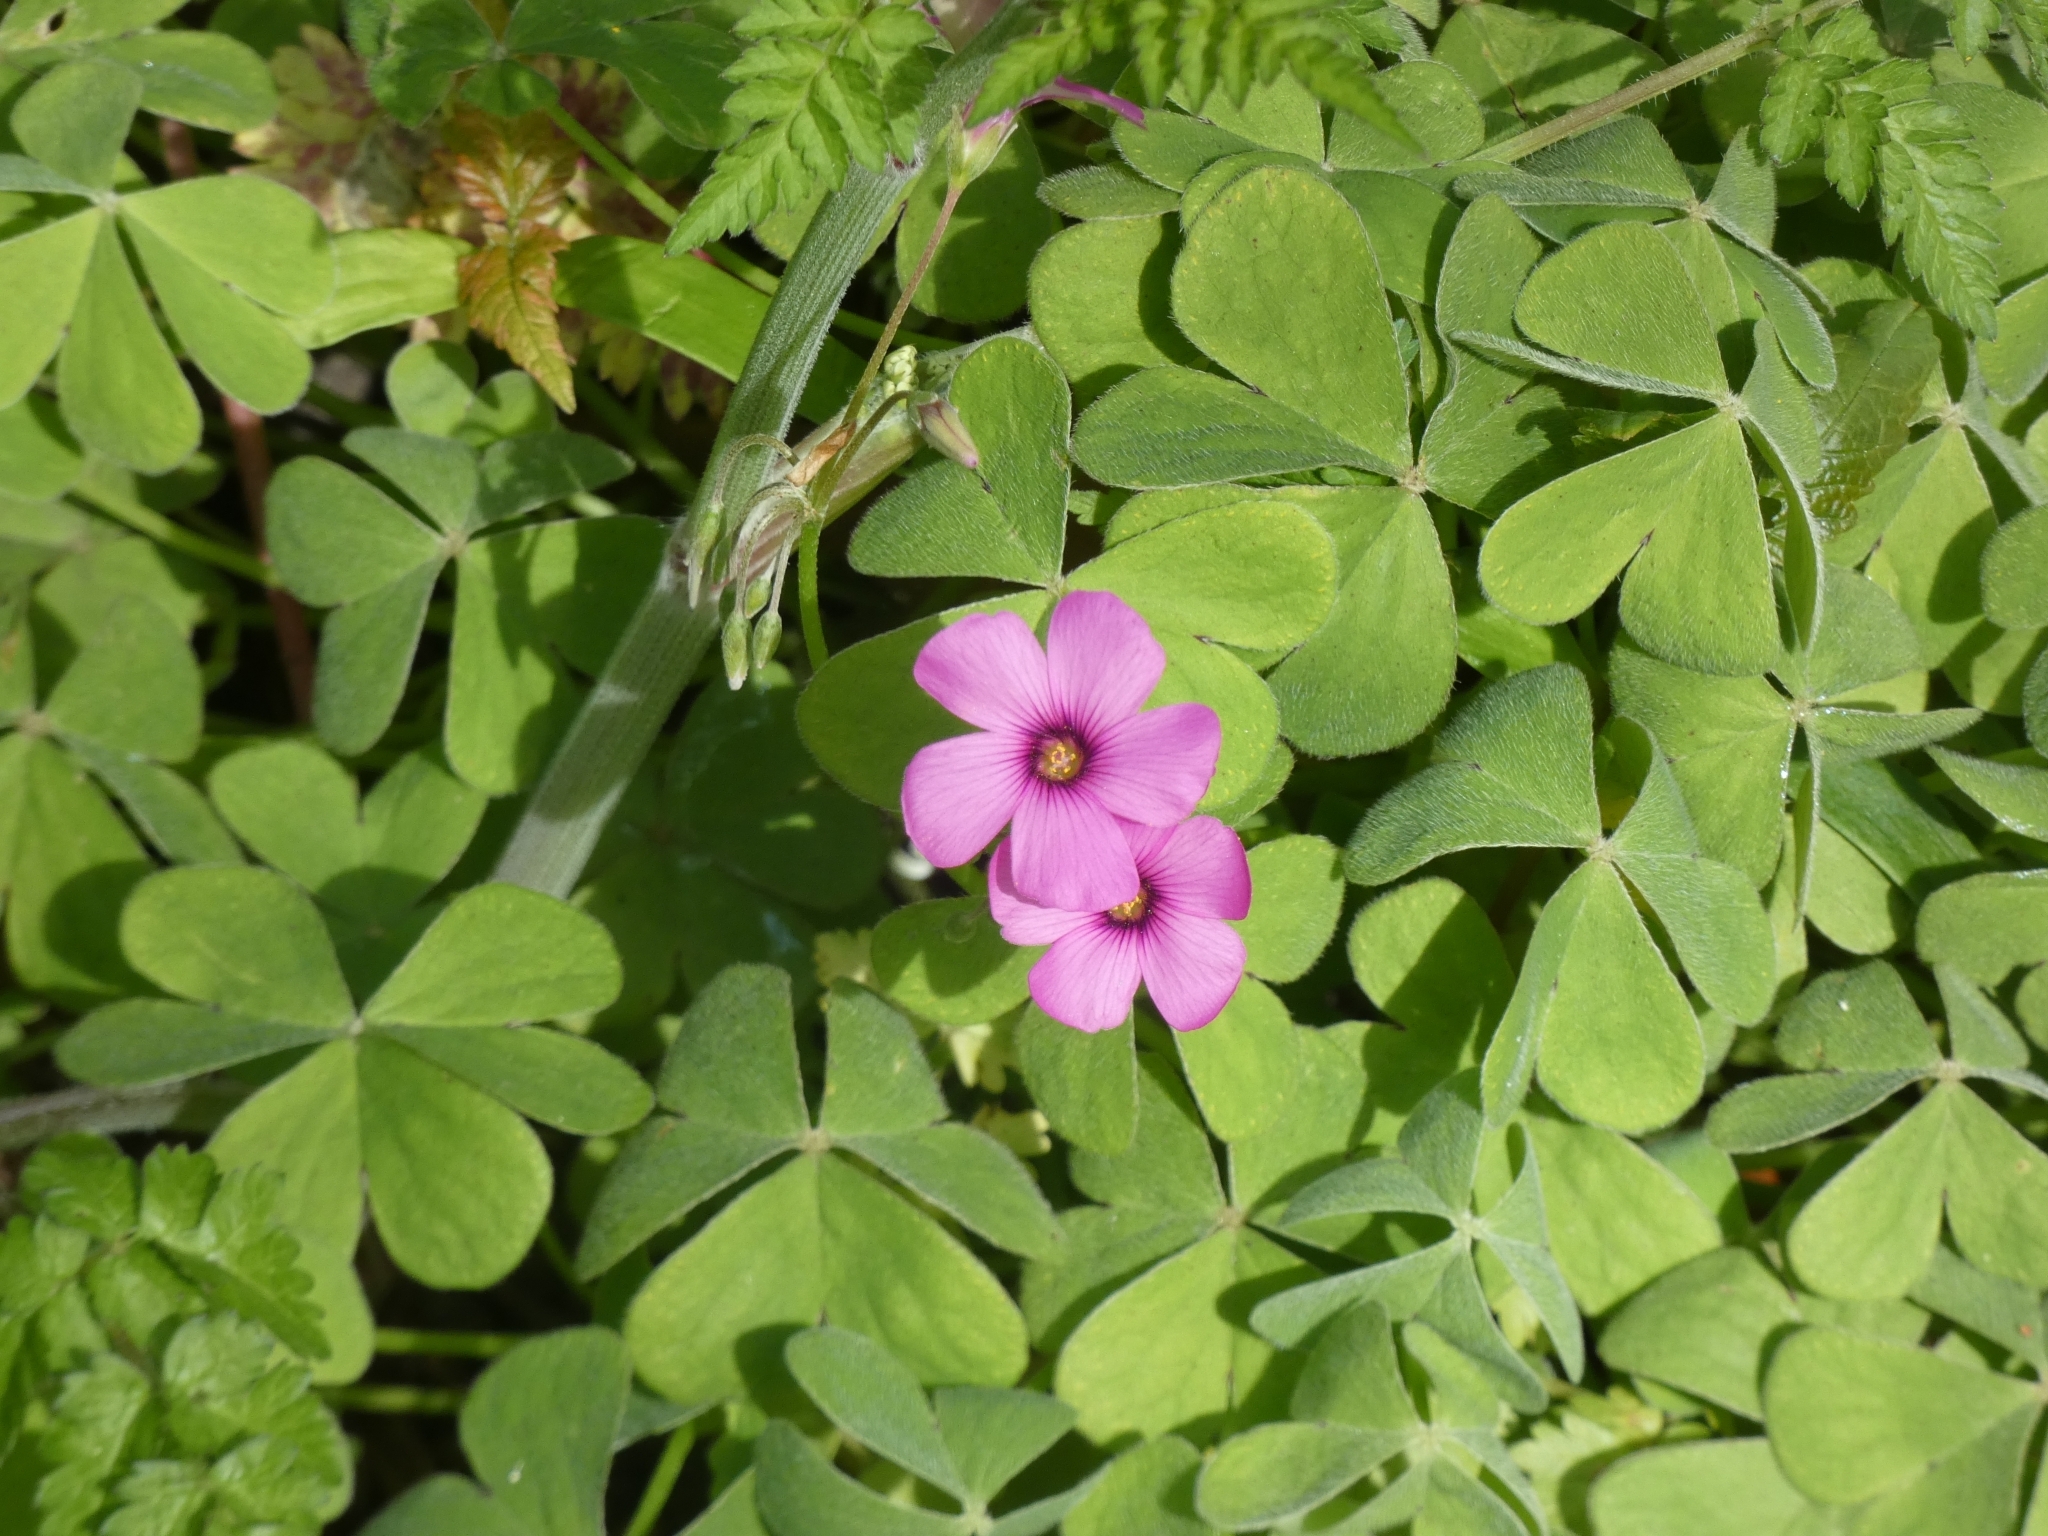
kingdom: Plantae
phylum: Tracheophyta
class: Magnoliopsida
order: Oxalidales
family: Oxalidaceae
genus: Oxalis
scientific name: Oxalis articulata
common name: Pink-sorrel
